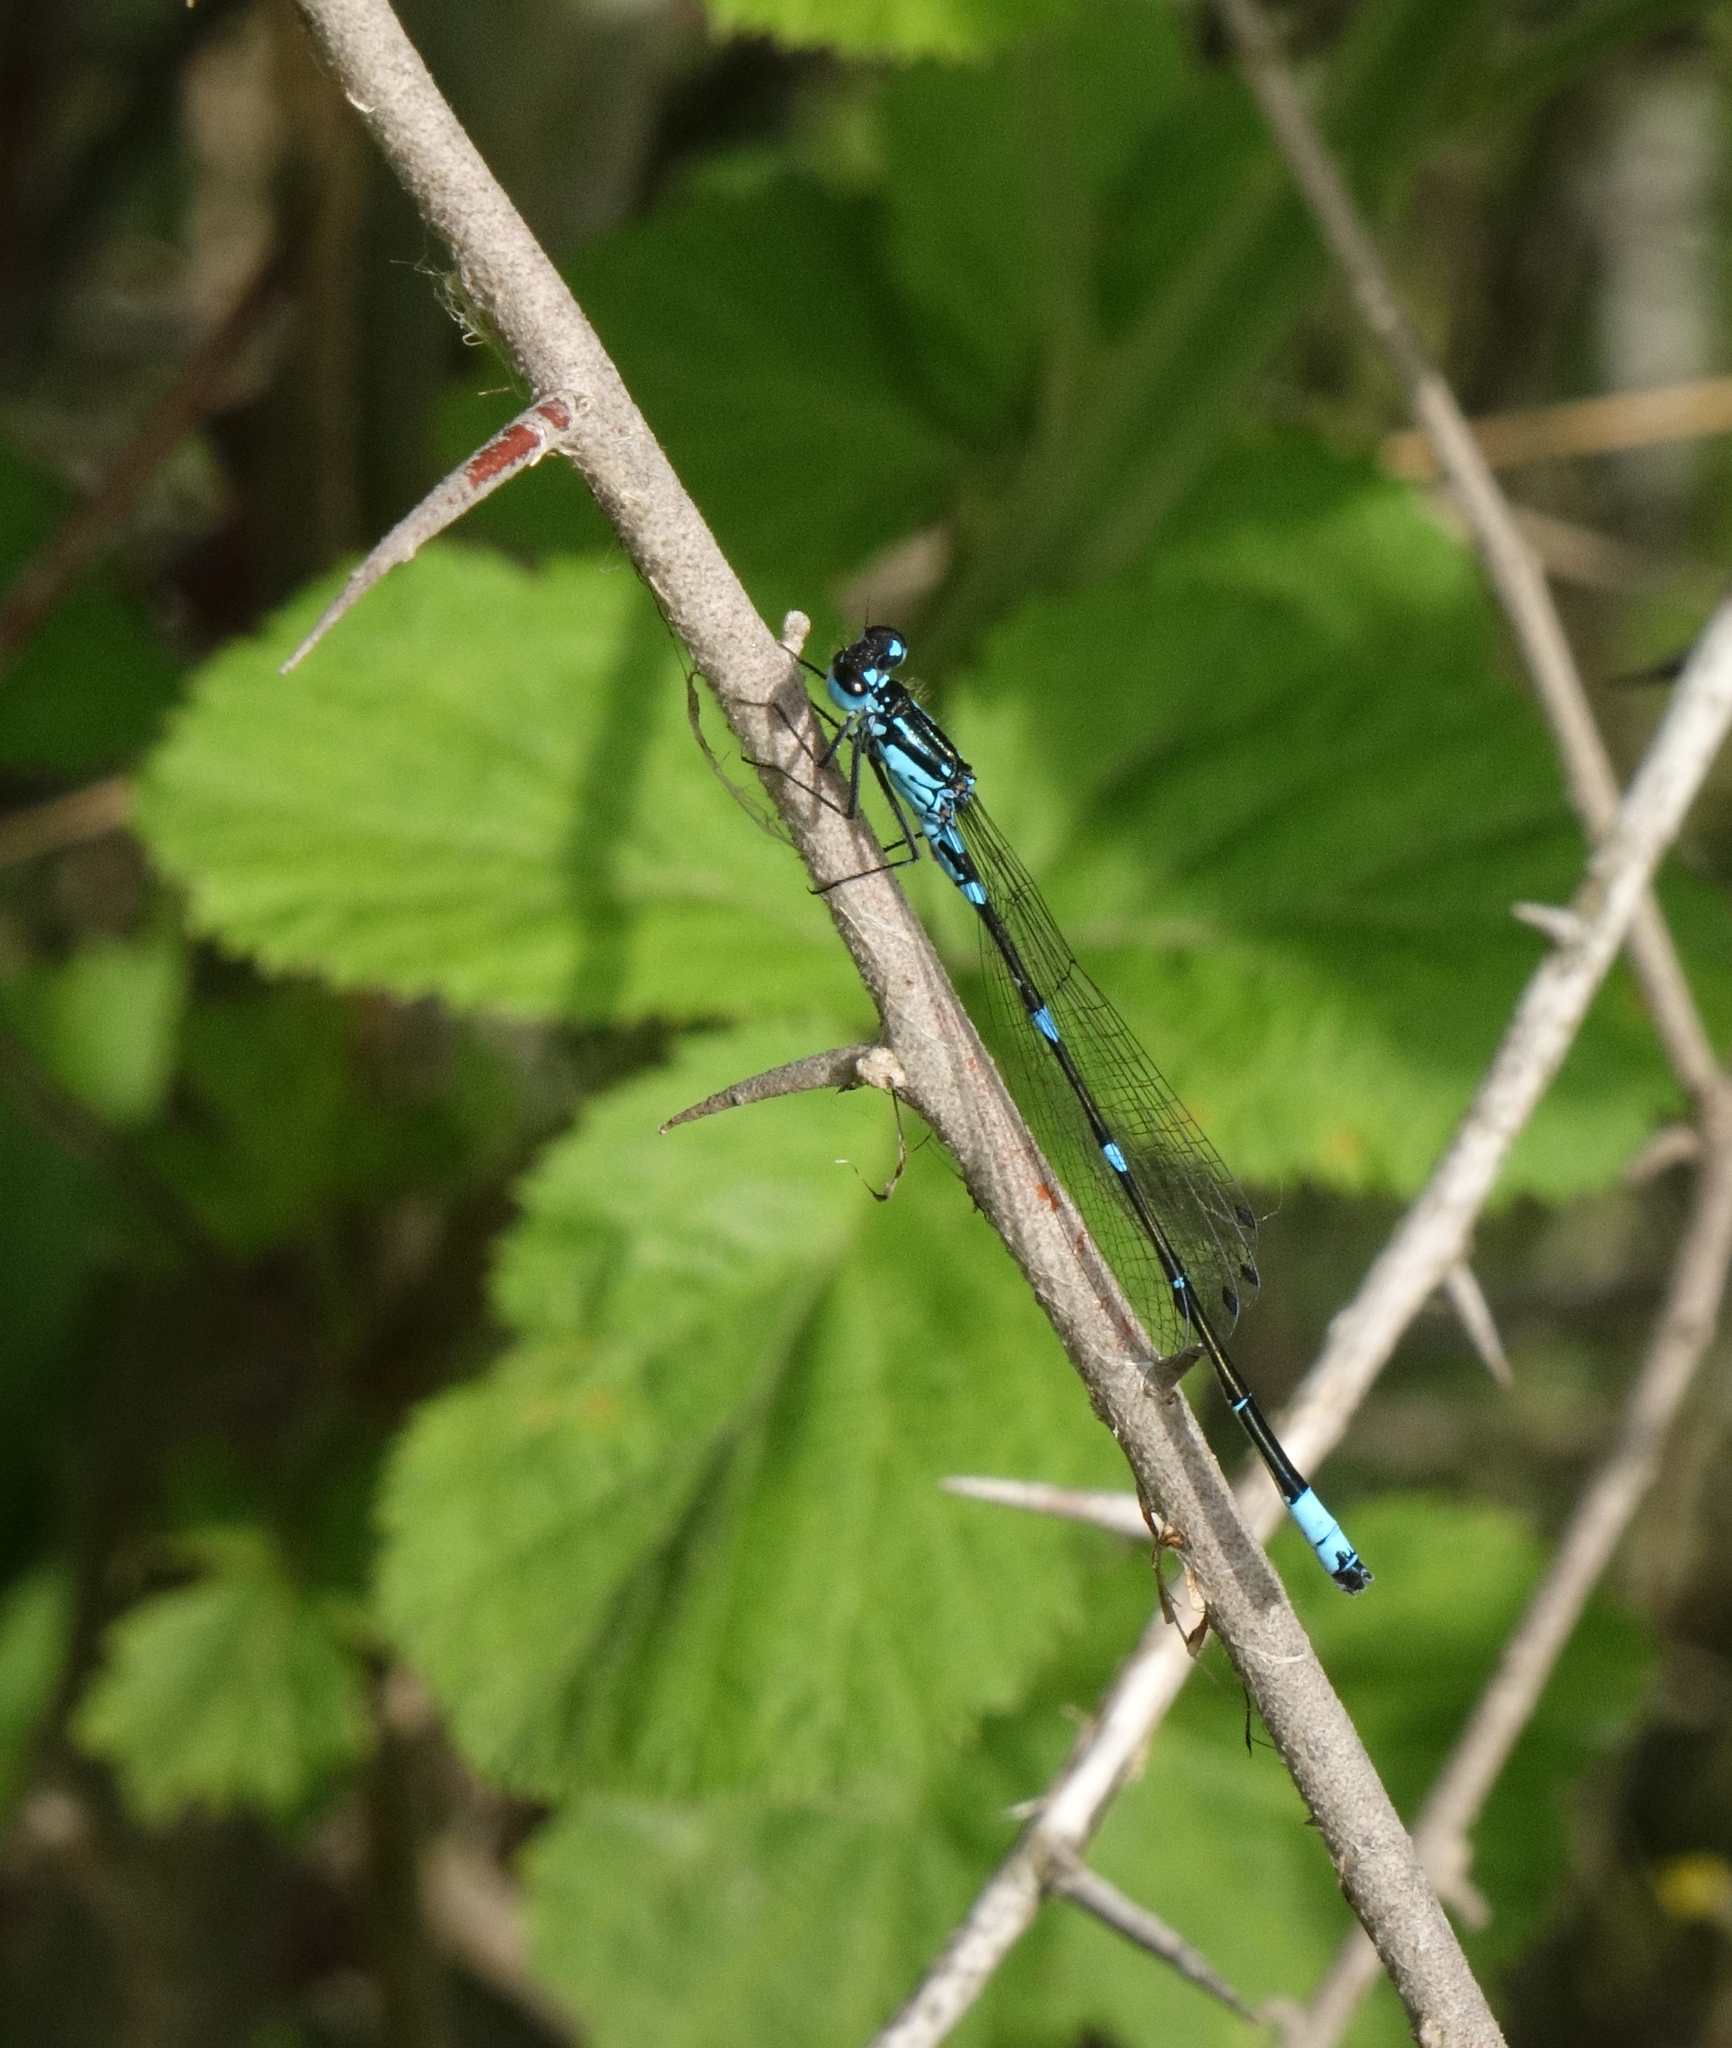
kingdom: Animalia
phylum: Arthropoda
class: Insecta
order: Odonata
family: Coenagrionidae
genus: Coenagrion
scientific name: Coenagrion pulchellum
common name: Variable bluet
